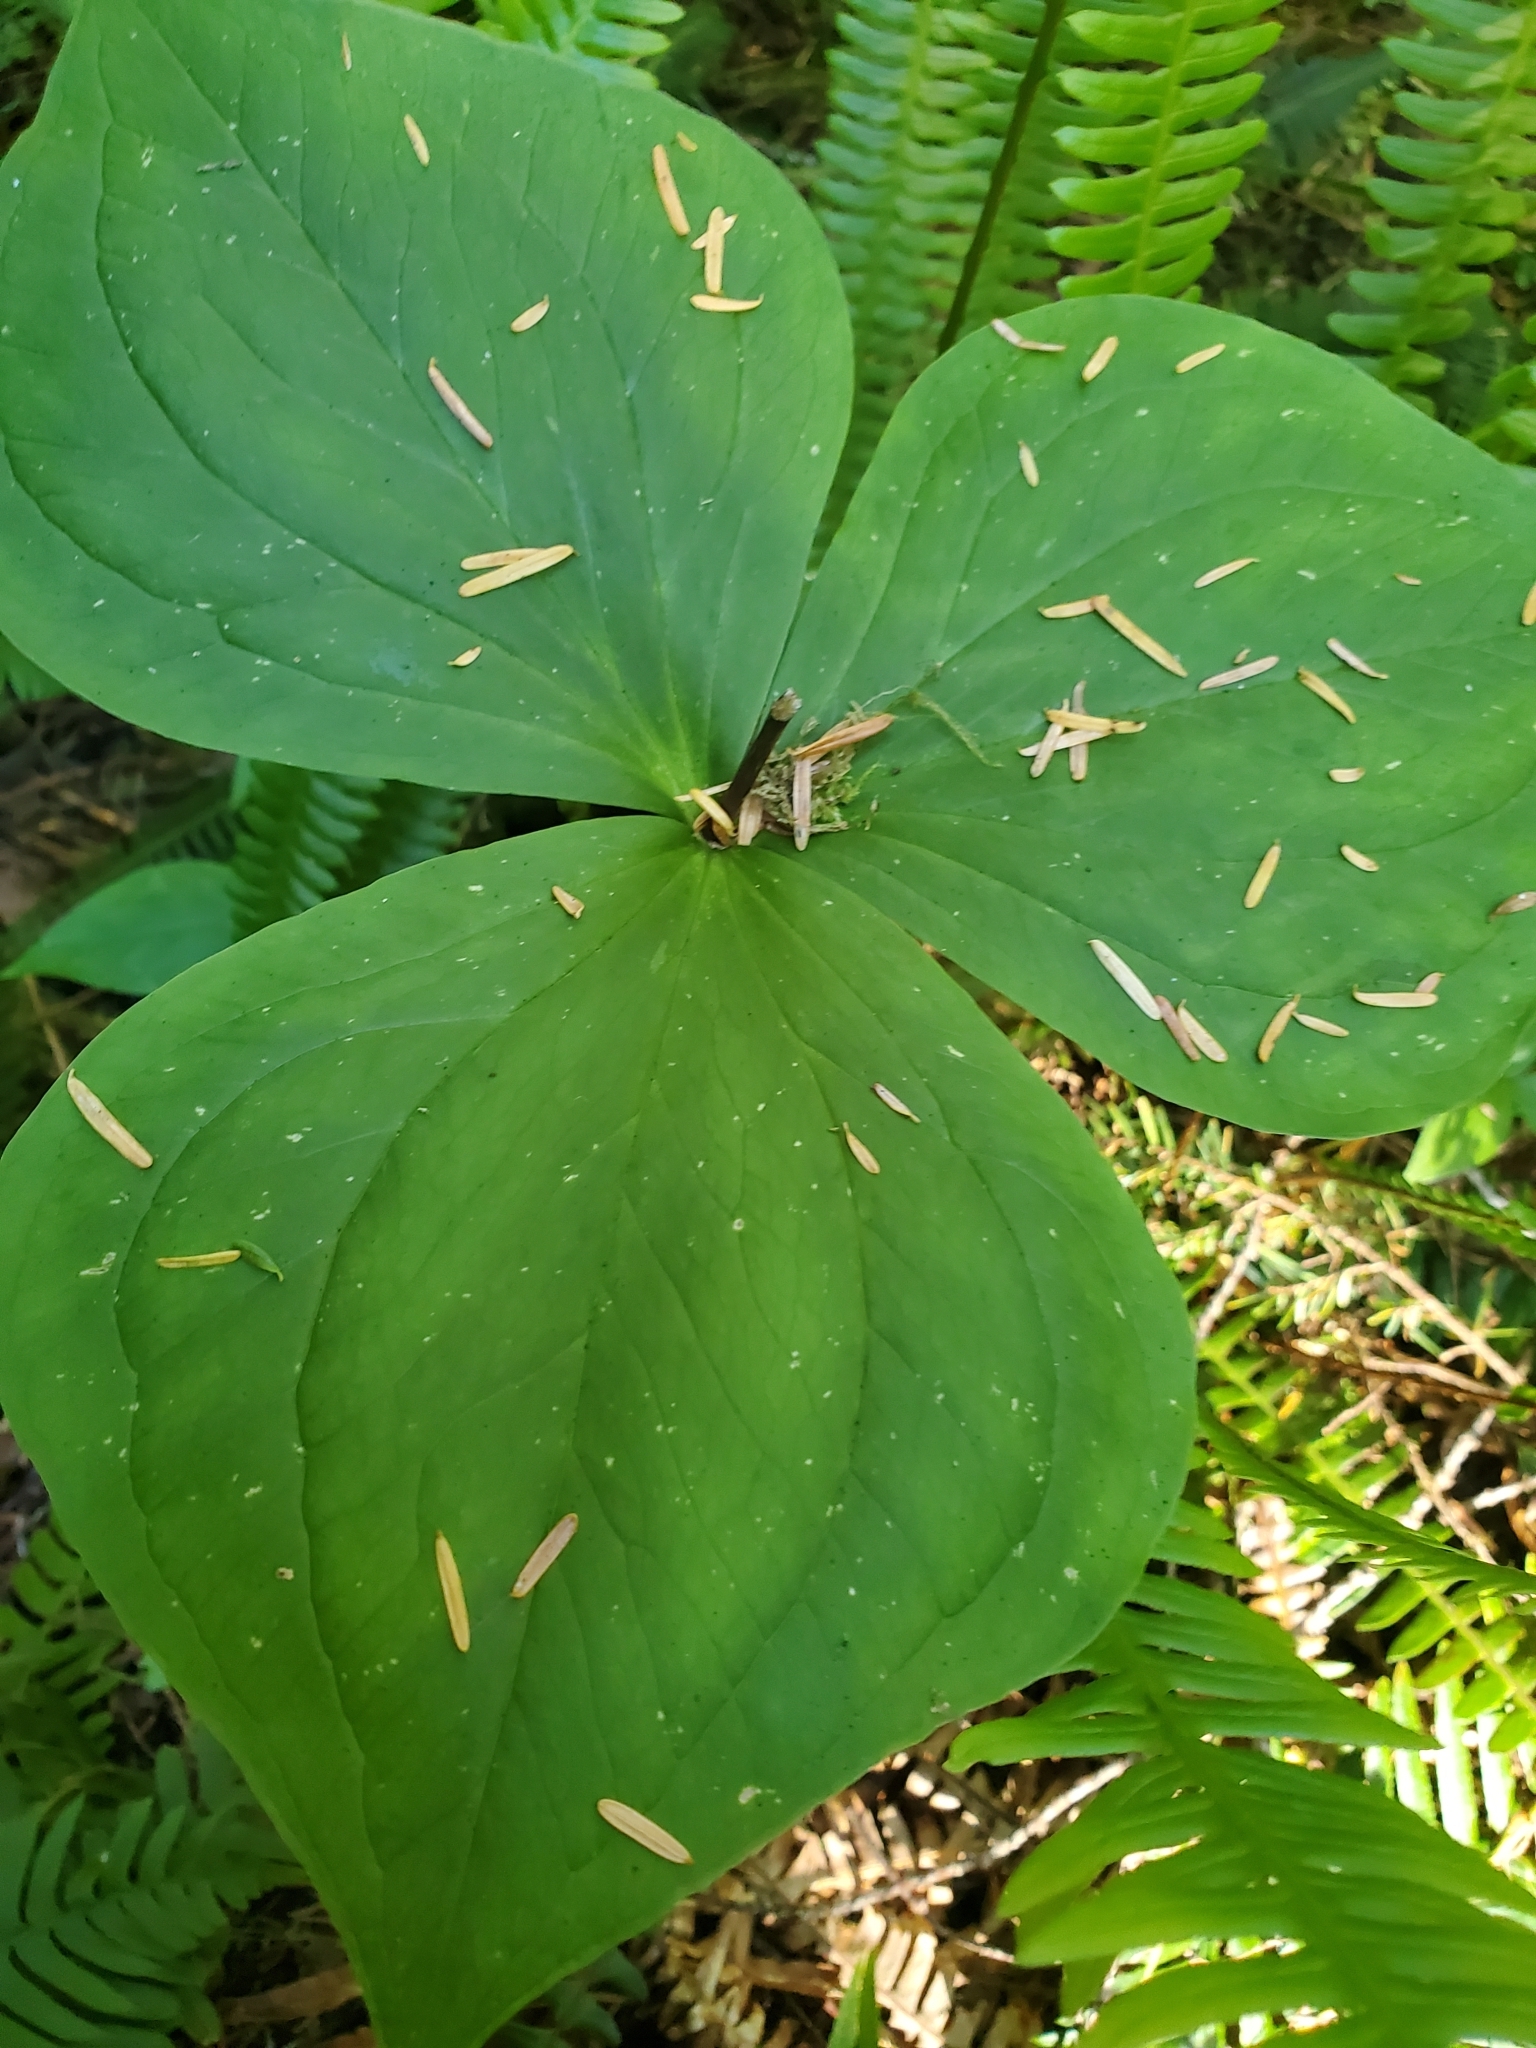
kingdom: Plantae
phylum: Tracheophyta
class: Liliopsida
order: Liliales
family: Melanthiaceae
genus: Trillium
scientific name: Trillium ovatum
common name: Pacific trillium
